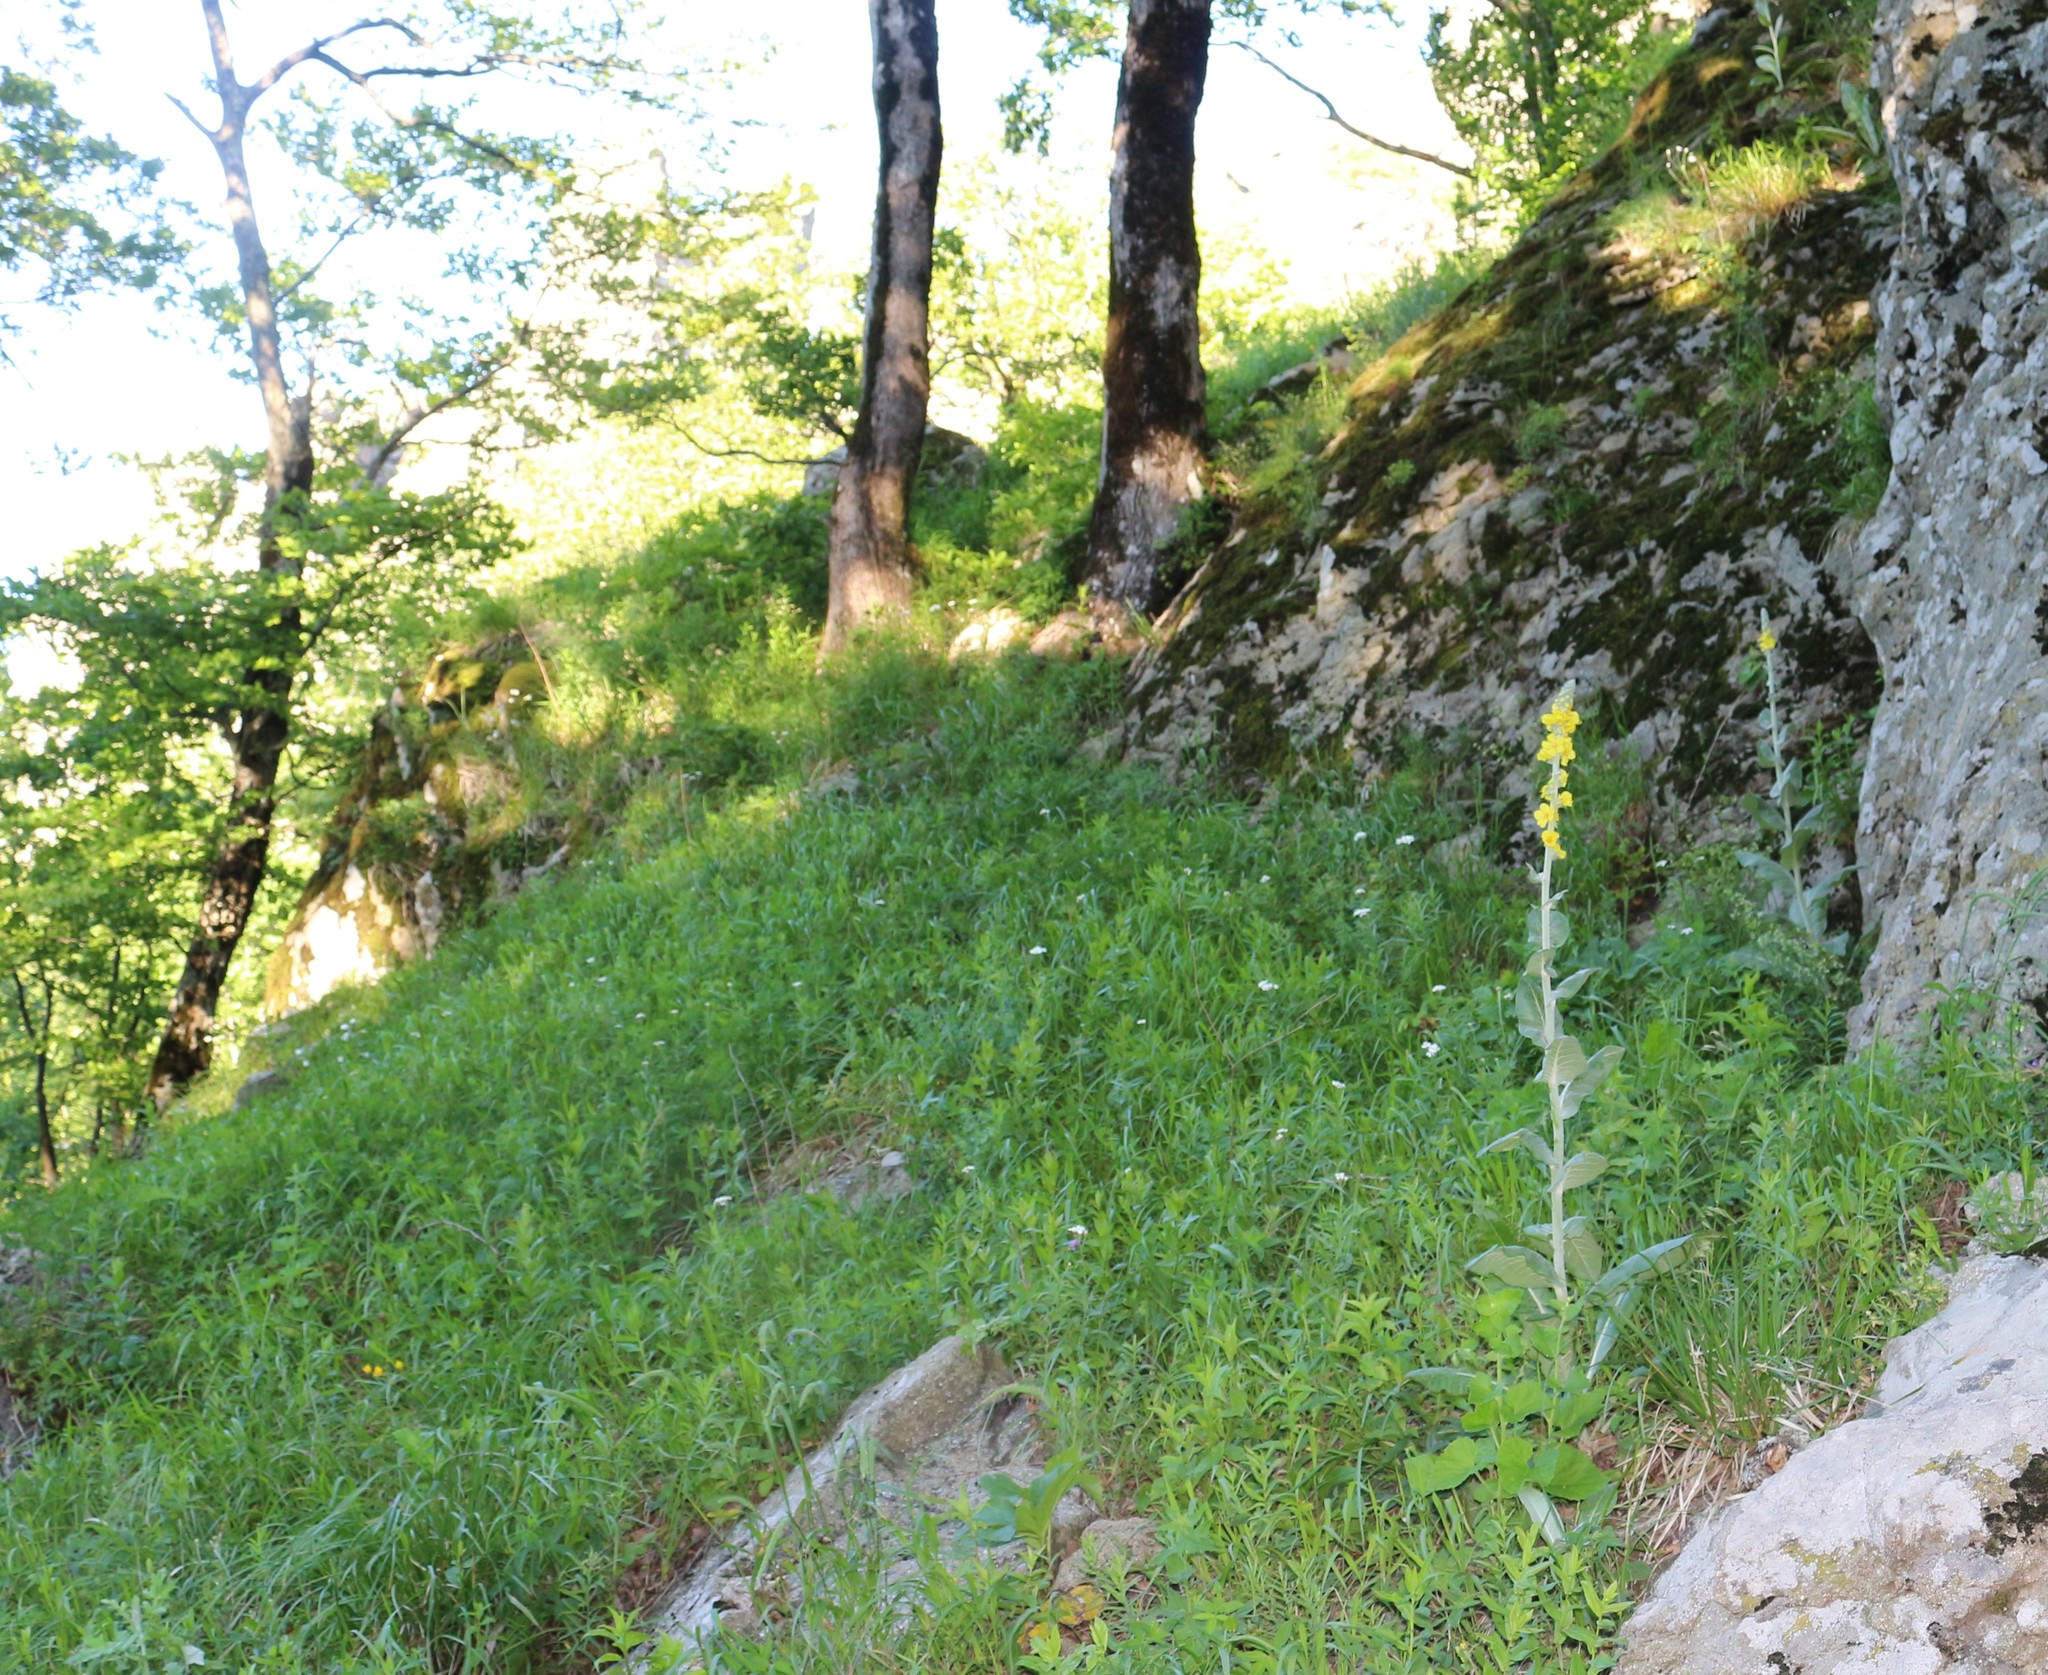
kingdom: Plantae
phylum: Tracheophyta
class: Magnoliopsida
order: Lamiales
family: Scrophulariaceae
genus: Verbascum
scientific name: Verbascum gnaphalodes
